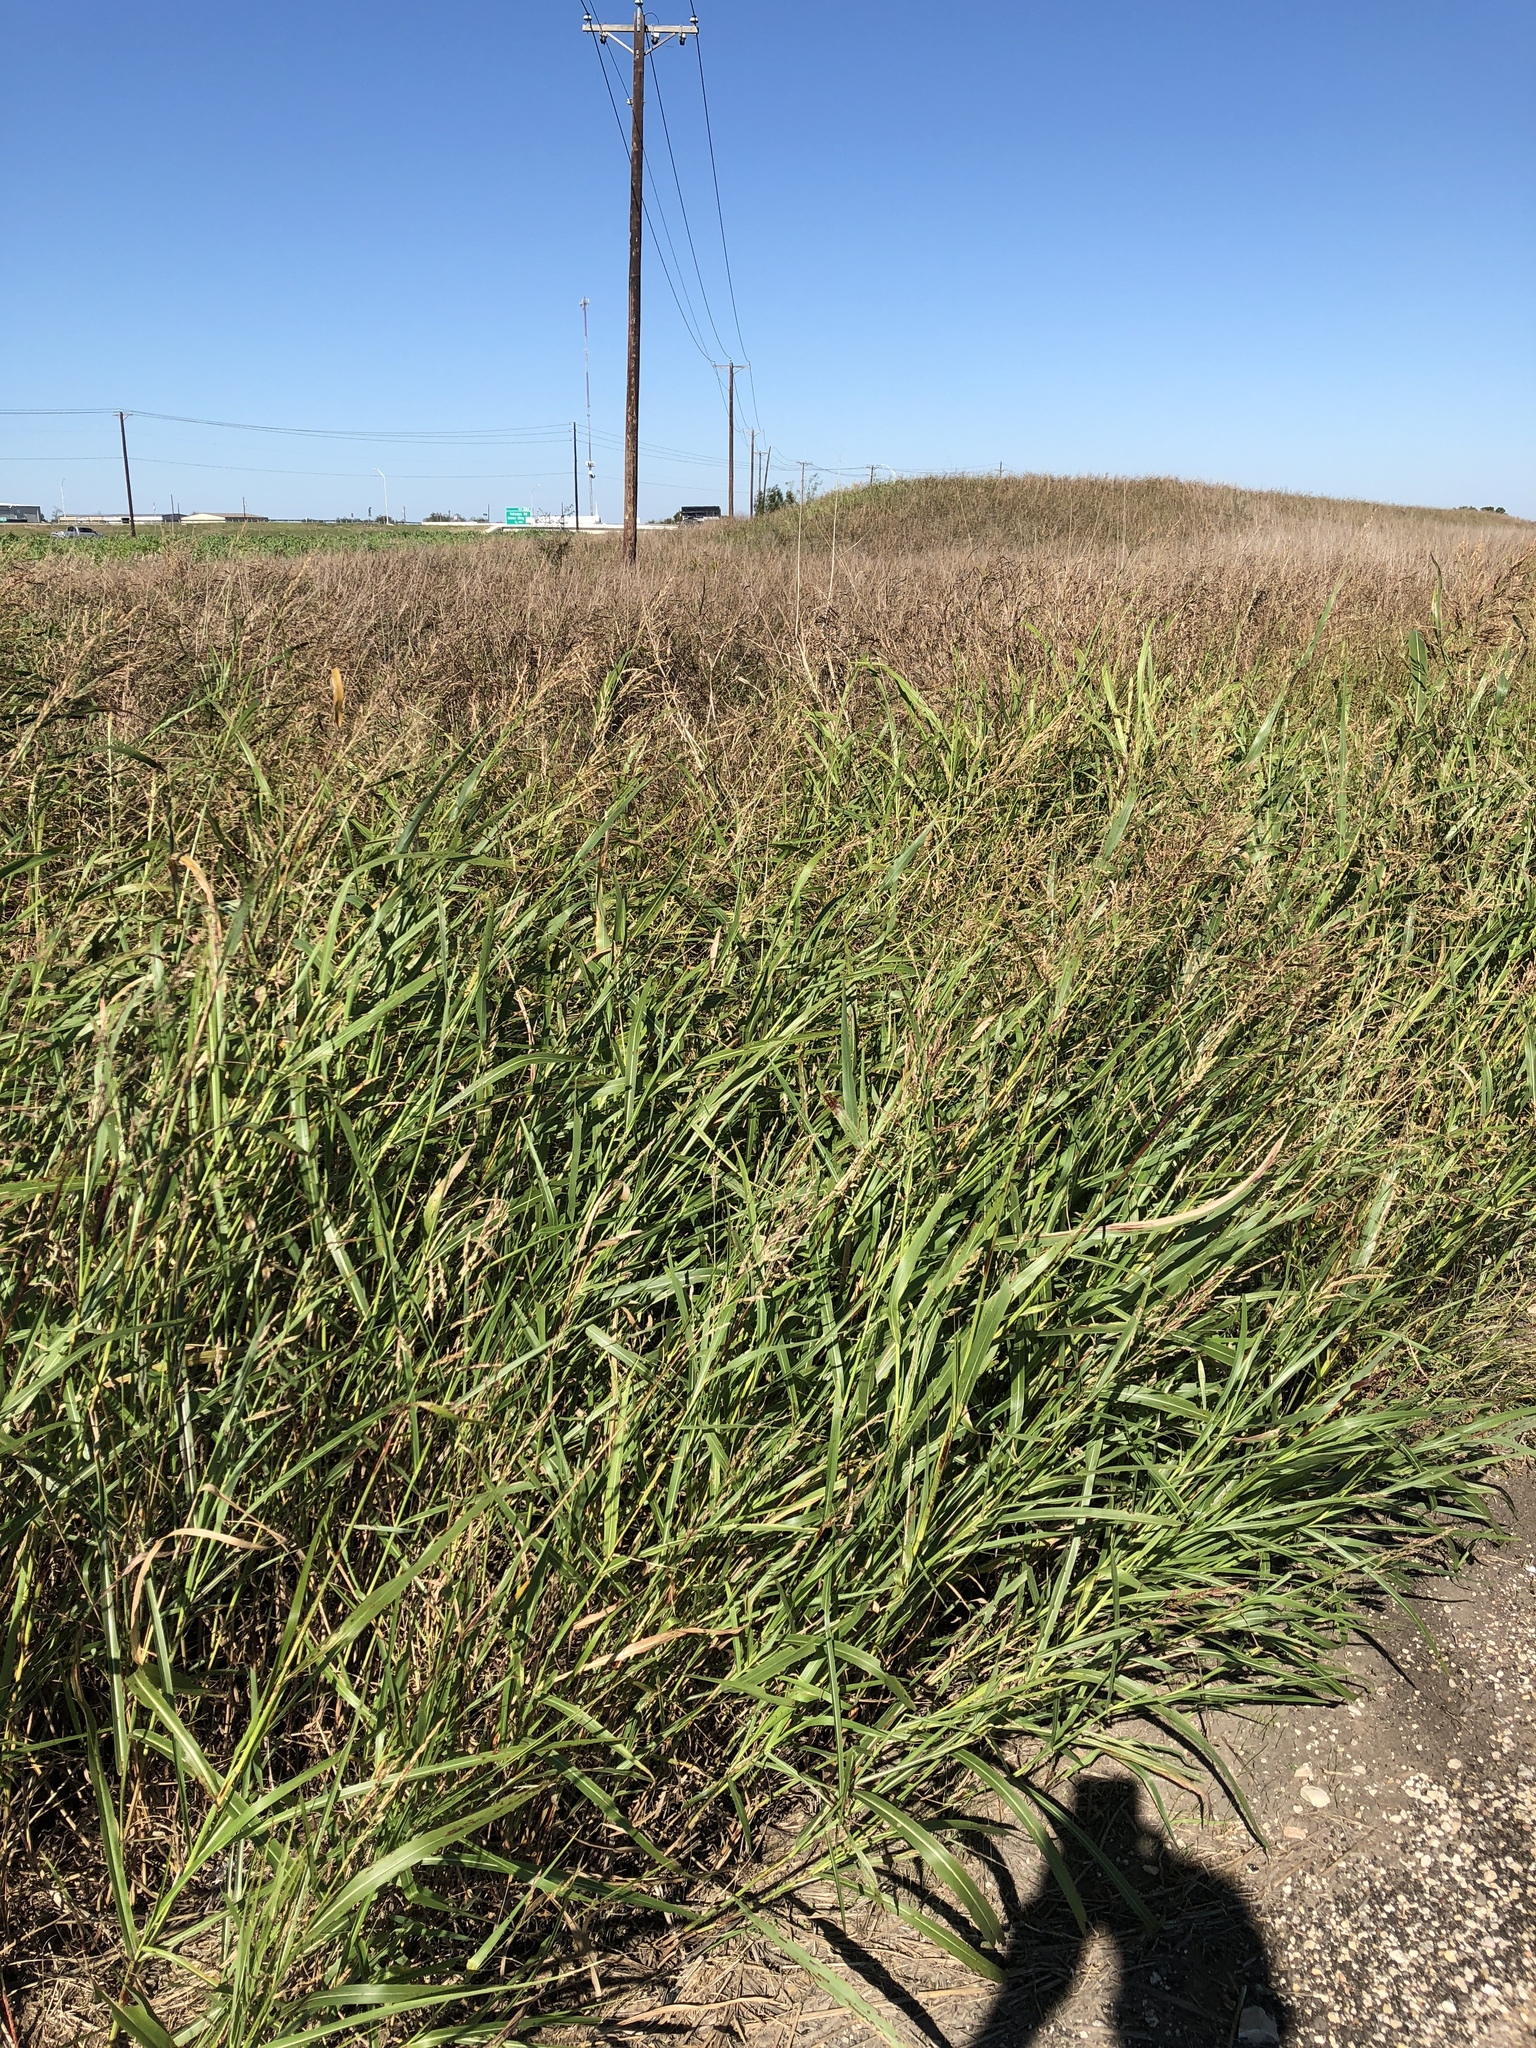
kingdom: Plantae
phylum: Tracheophyta
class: Liliopsida
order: Poales
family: Poaceae
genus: Sorghum
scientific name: Sorghum halepense
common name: Johnson-grass
